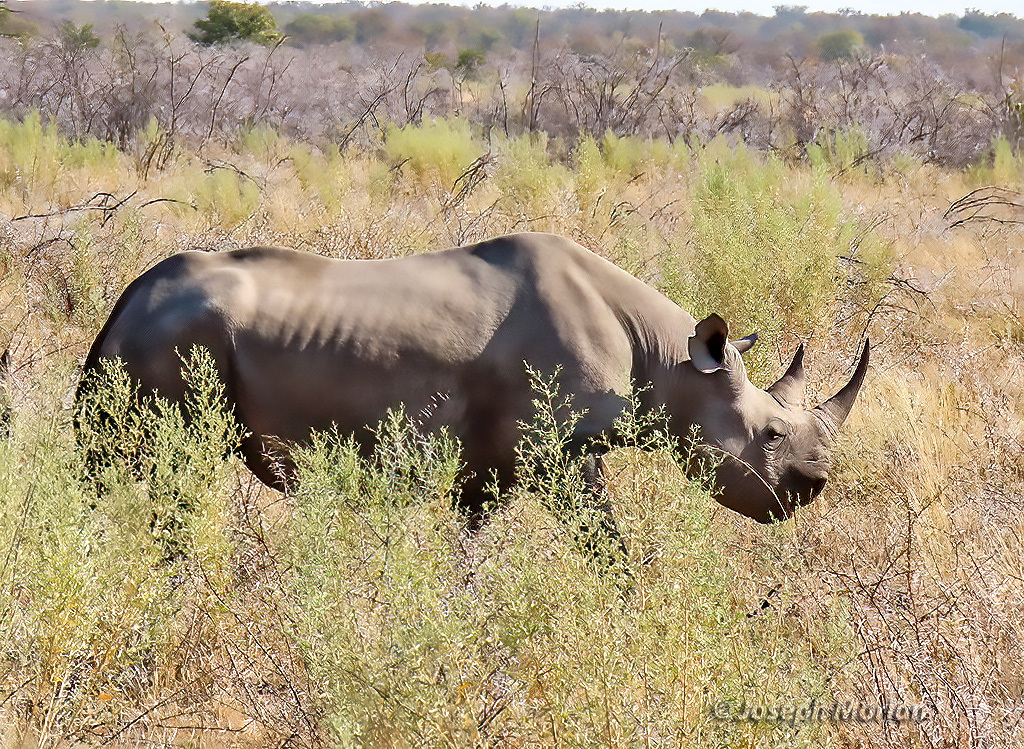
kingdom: Animalia
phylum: Chordata
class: Mammalia
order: Perissodactyla
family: Rhinocerotidae
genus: Diceros
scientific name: Diceros bicornis
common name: Black rhinoceros
